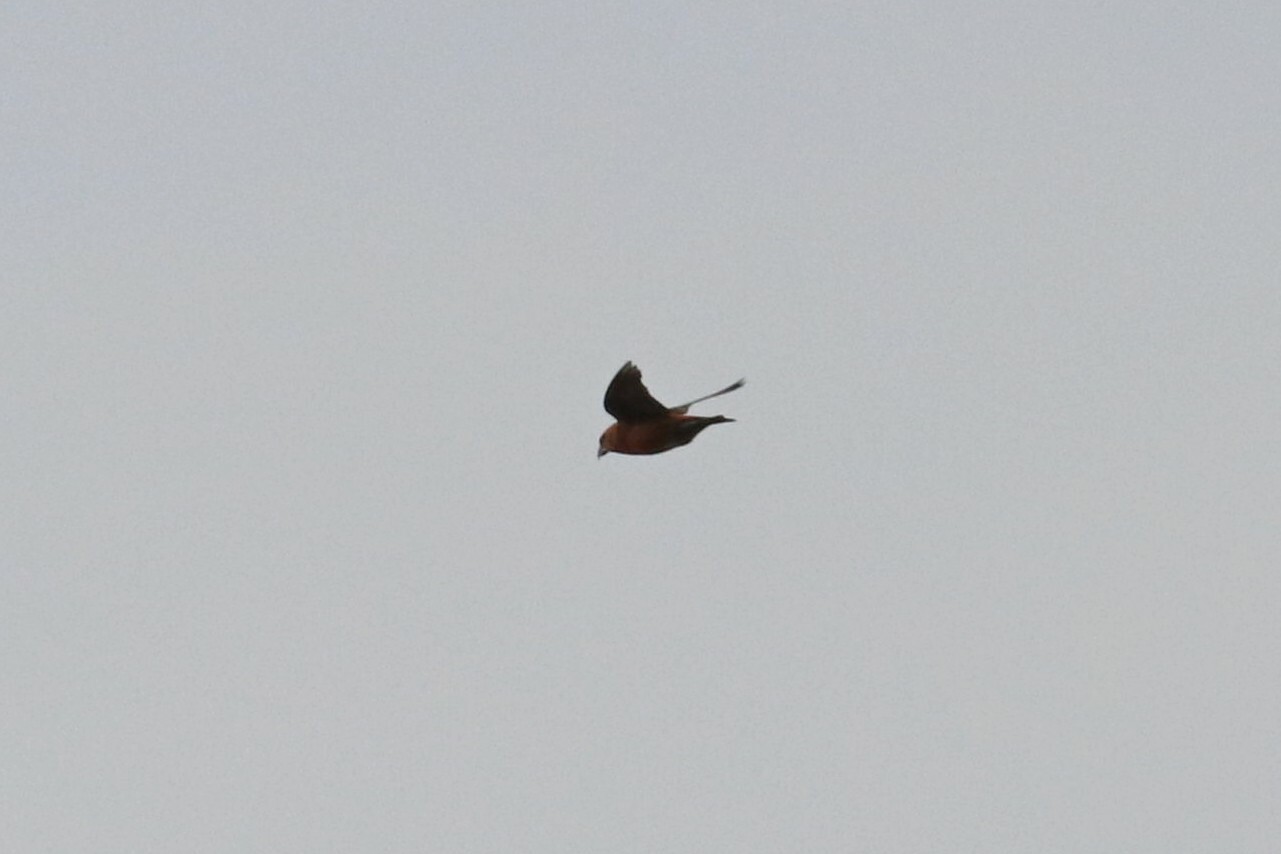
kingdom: Animalia
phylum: Chordata
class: Aves
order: Passeriformes
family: Fringillidae
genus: Loxia
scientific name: Loxia curvirostra
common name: Red crossbill
